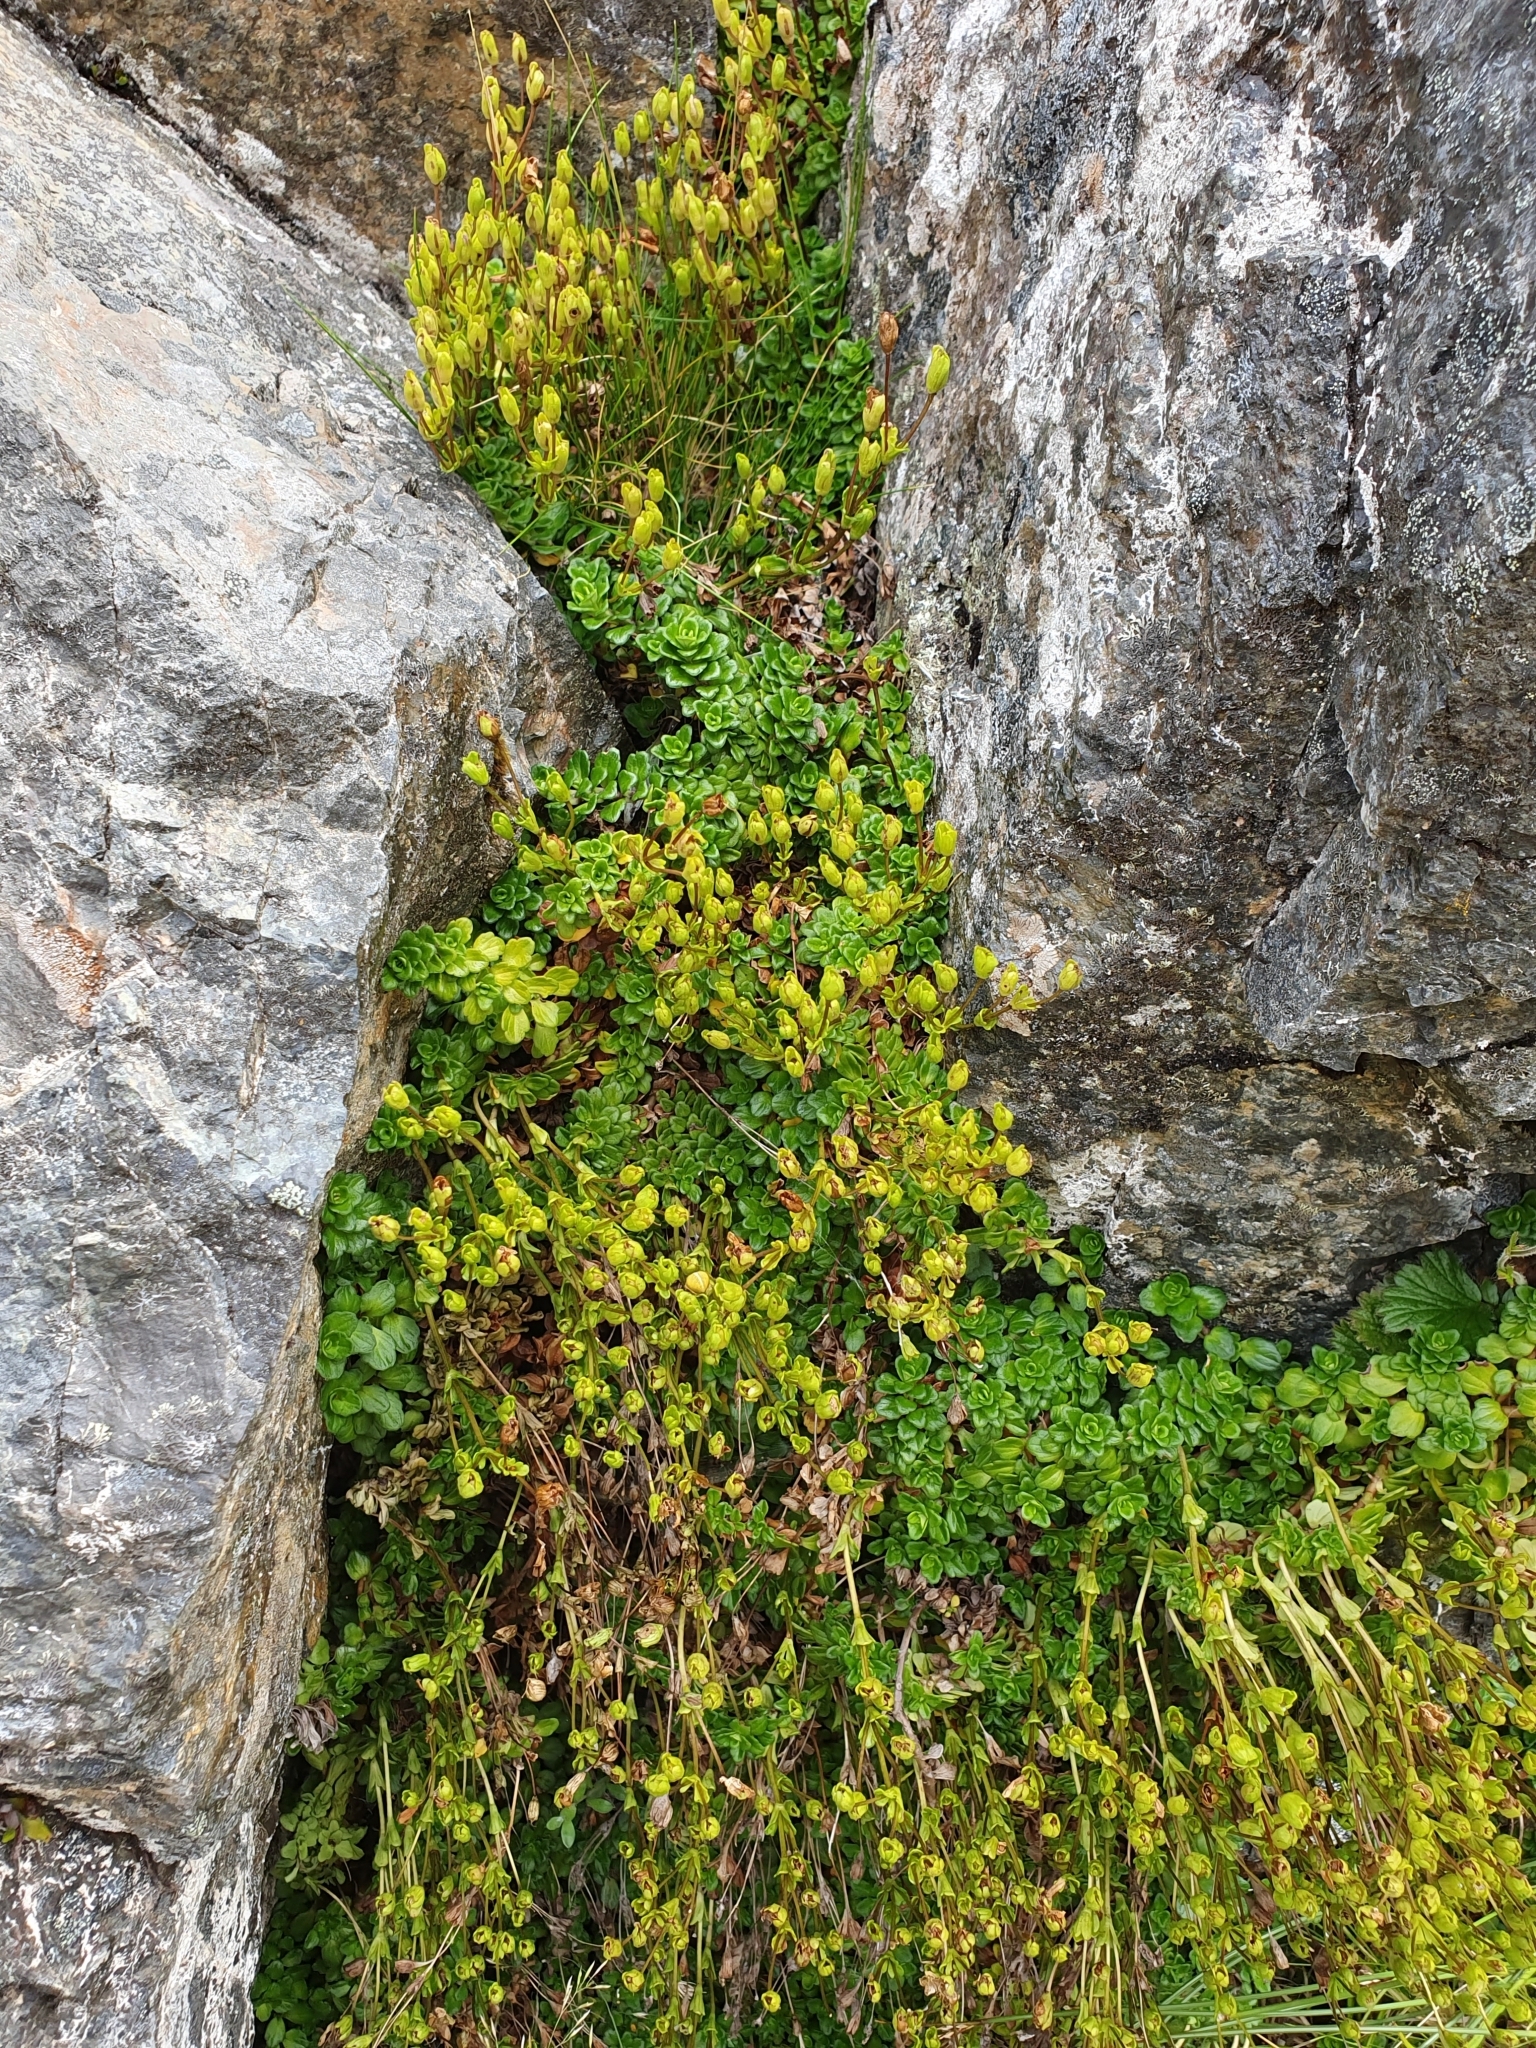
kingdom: Plantae
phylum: Tracheophyta
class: Magnoliopsida
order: Lamiales
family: Plantaginaceae
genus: Ourisia
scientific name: Ourisia caespitosa
